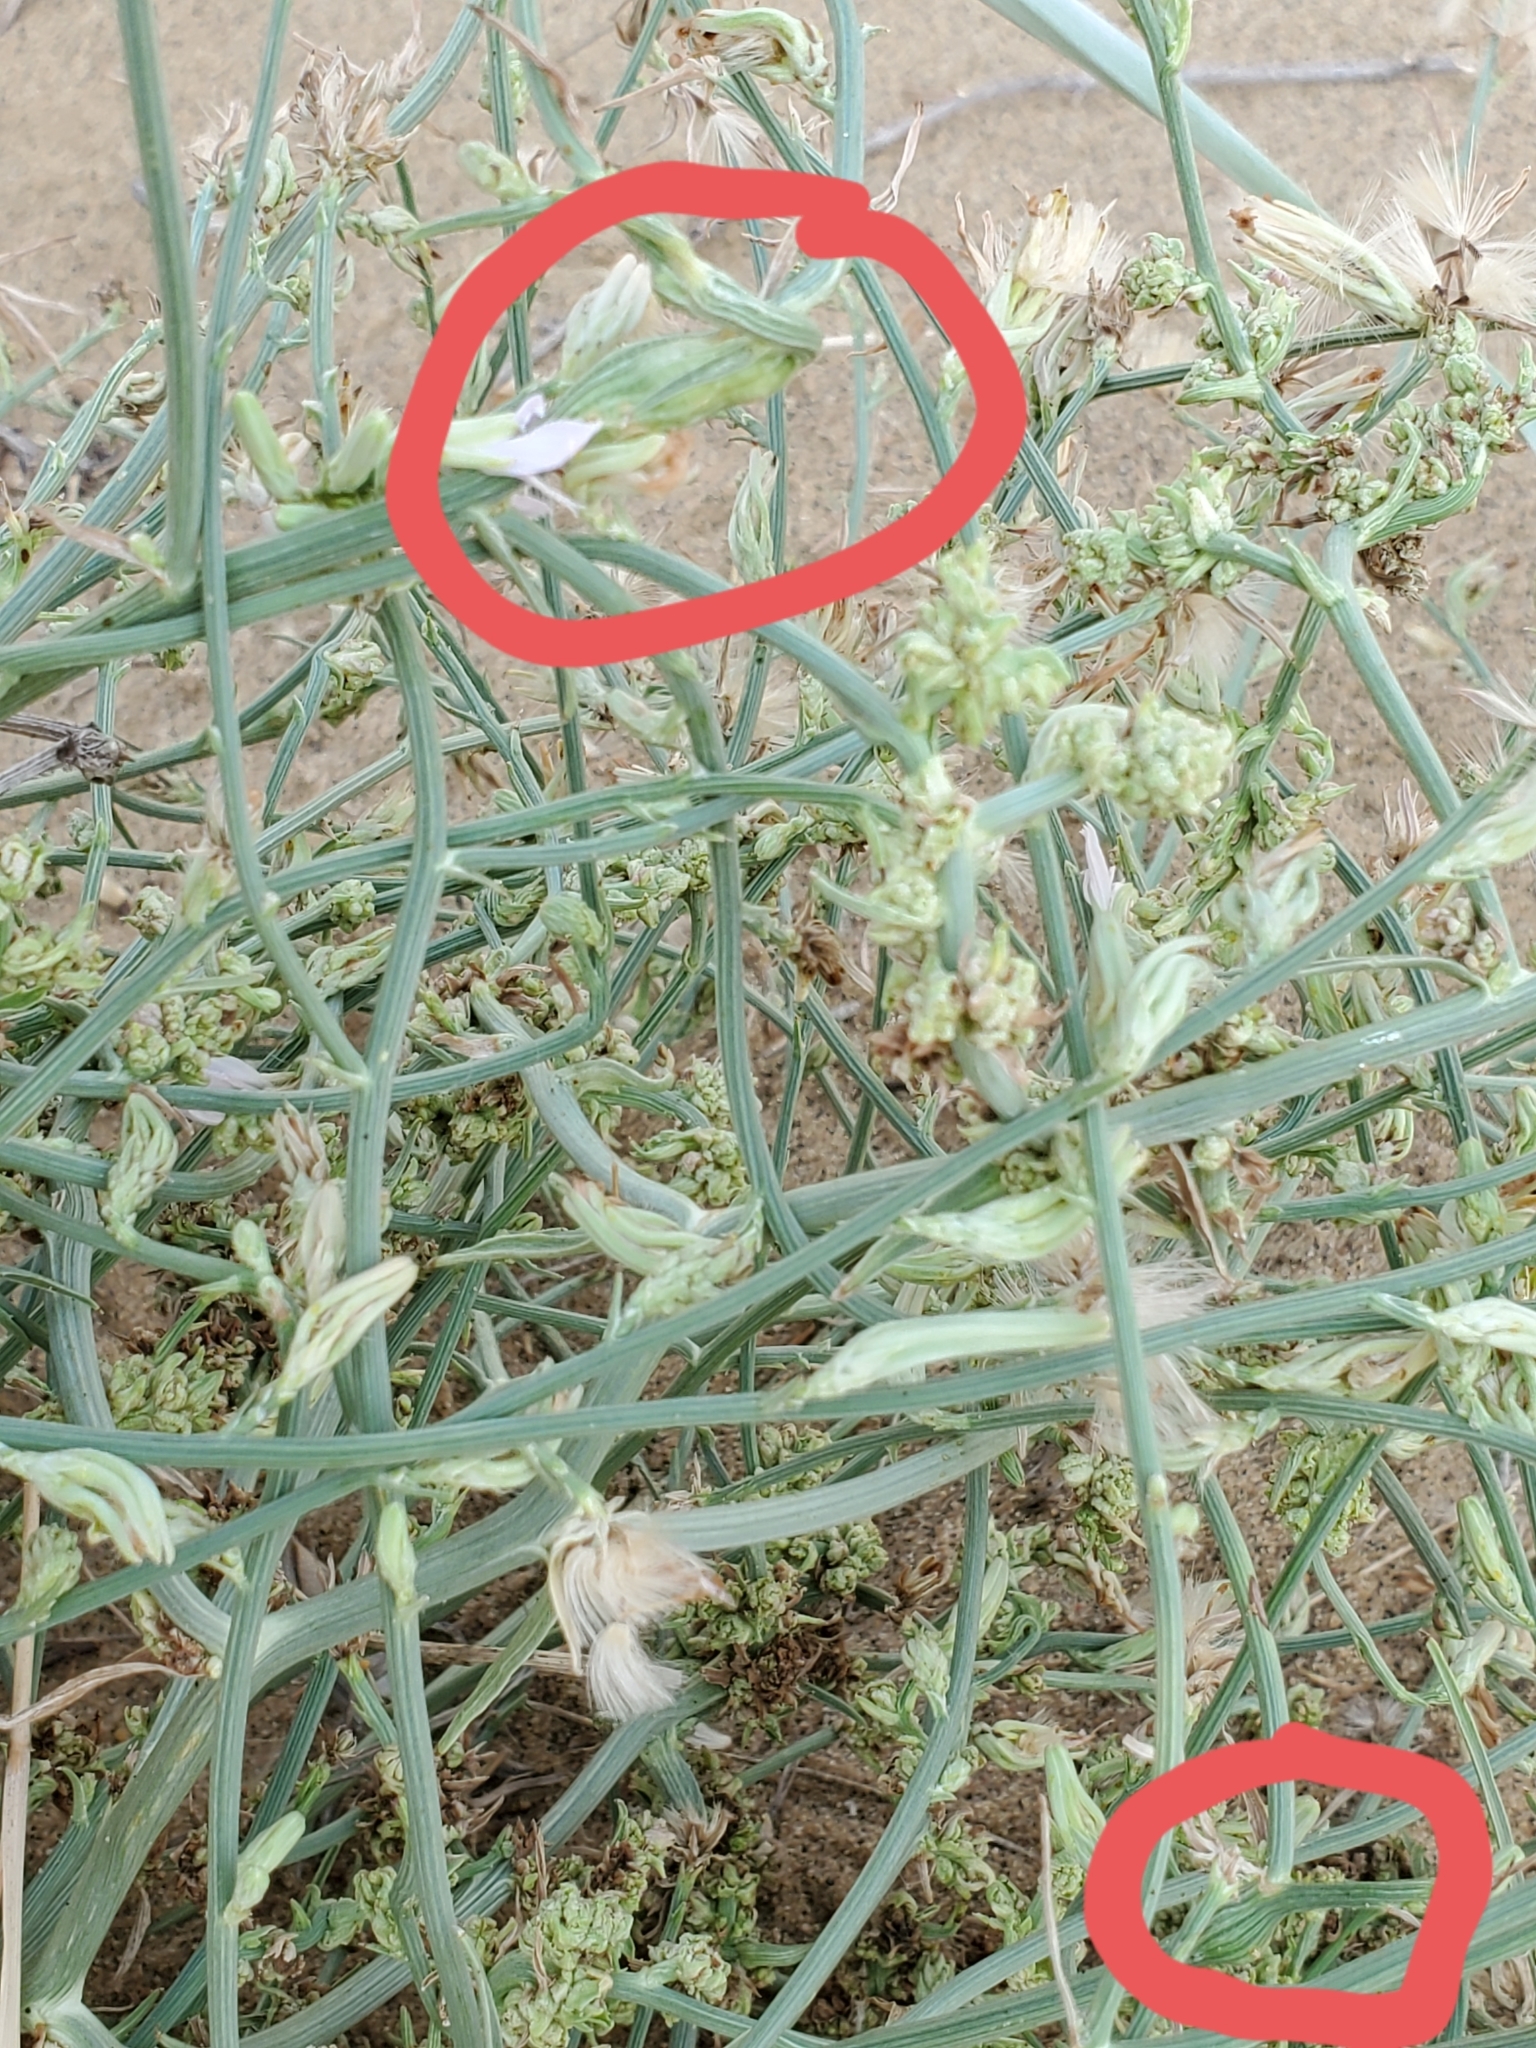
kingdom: Animalia
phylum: Arthropoda
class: Insecta
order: Hymenoptera
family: Cynipidae
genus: Antistrophus
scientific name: Antistrophus
